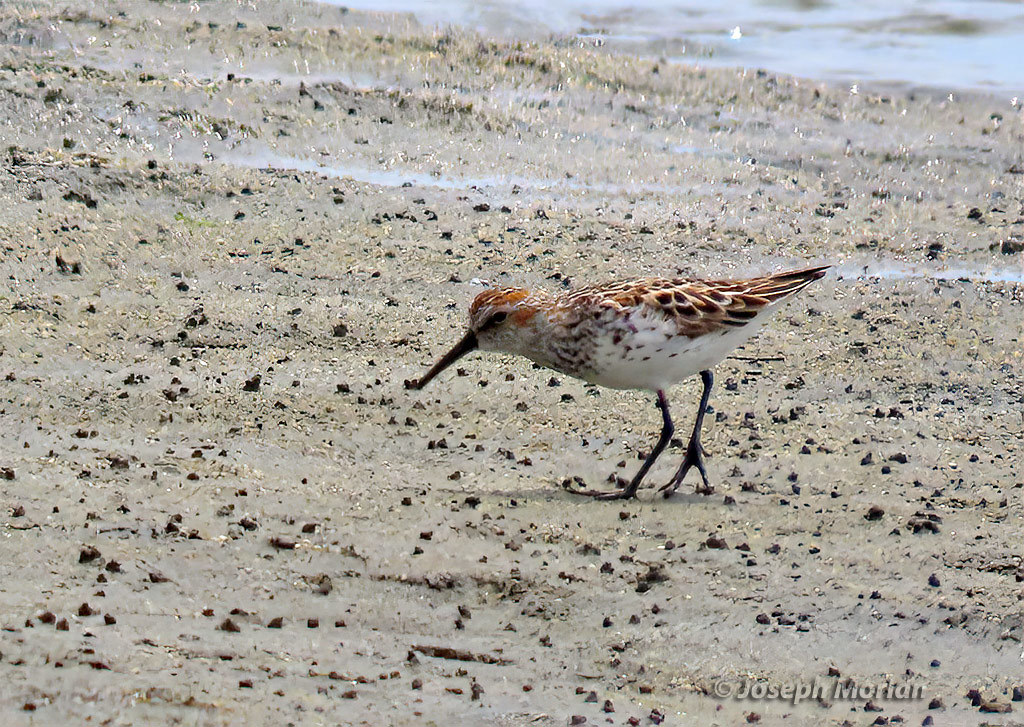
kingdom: Animalia
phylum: Chordata
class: Aves
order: Charadriiformes
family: Scolopacidae
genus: Calidris
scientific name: Calidris mauri
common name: Western sandpiper
